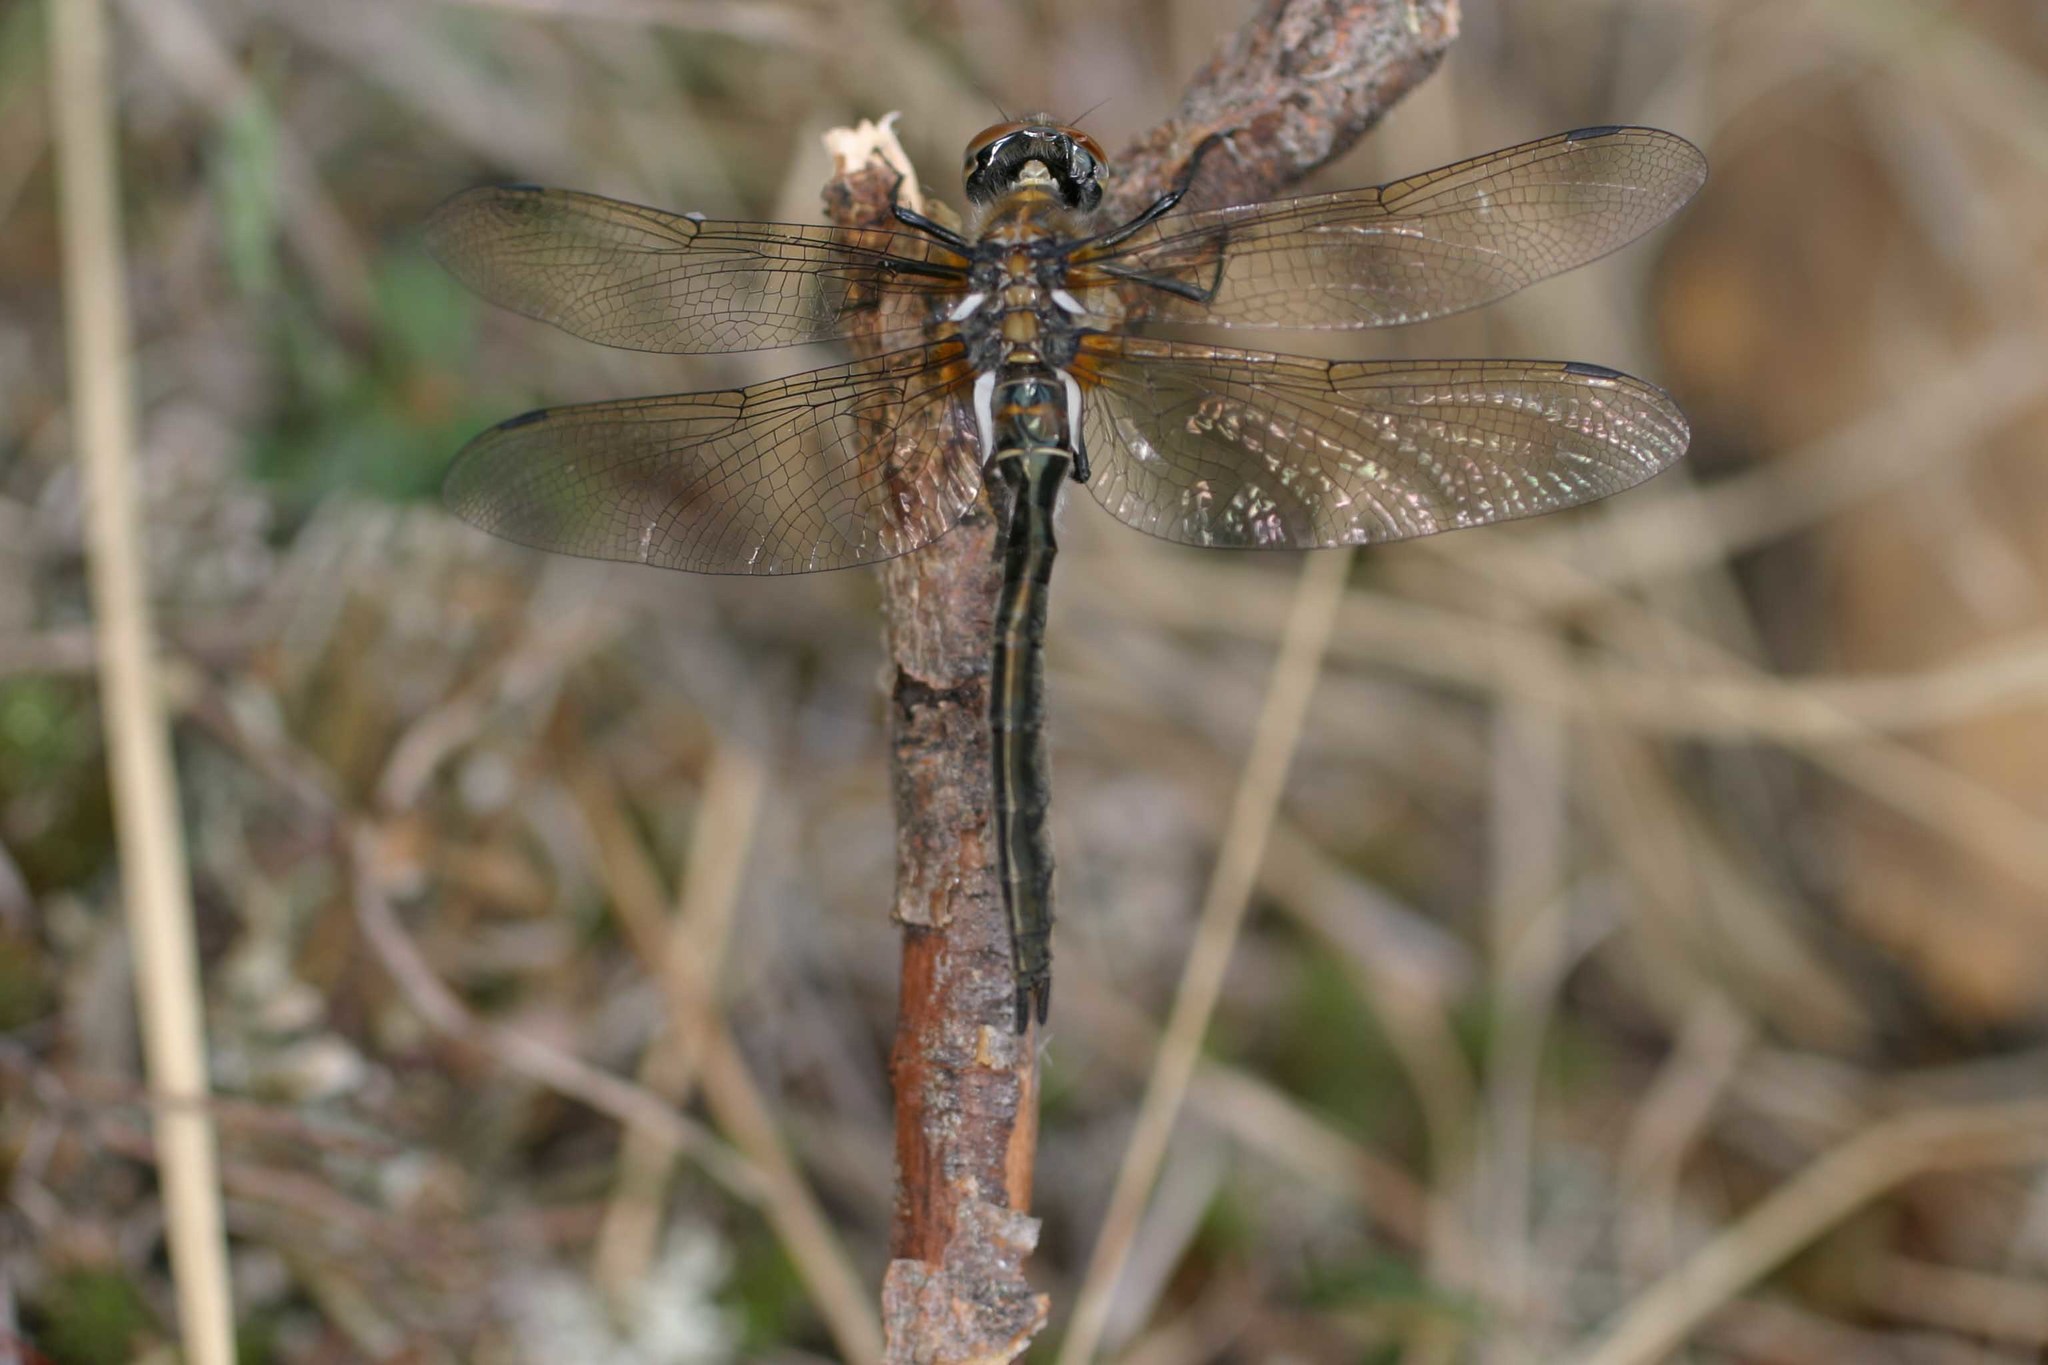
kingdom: Animalia
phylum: Arthropoda
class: Insecta
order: Odonata
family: Corduliidae
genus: Cordulia
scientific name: Cordulia shurtleffii
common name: American emerald
